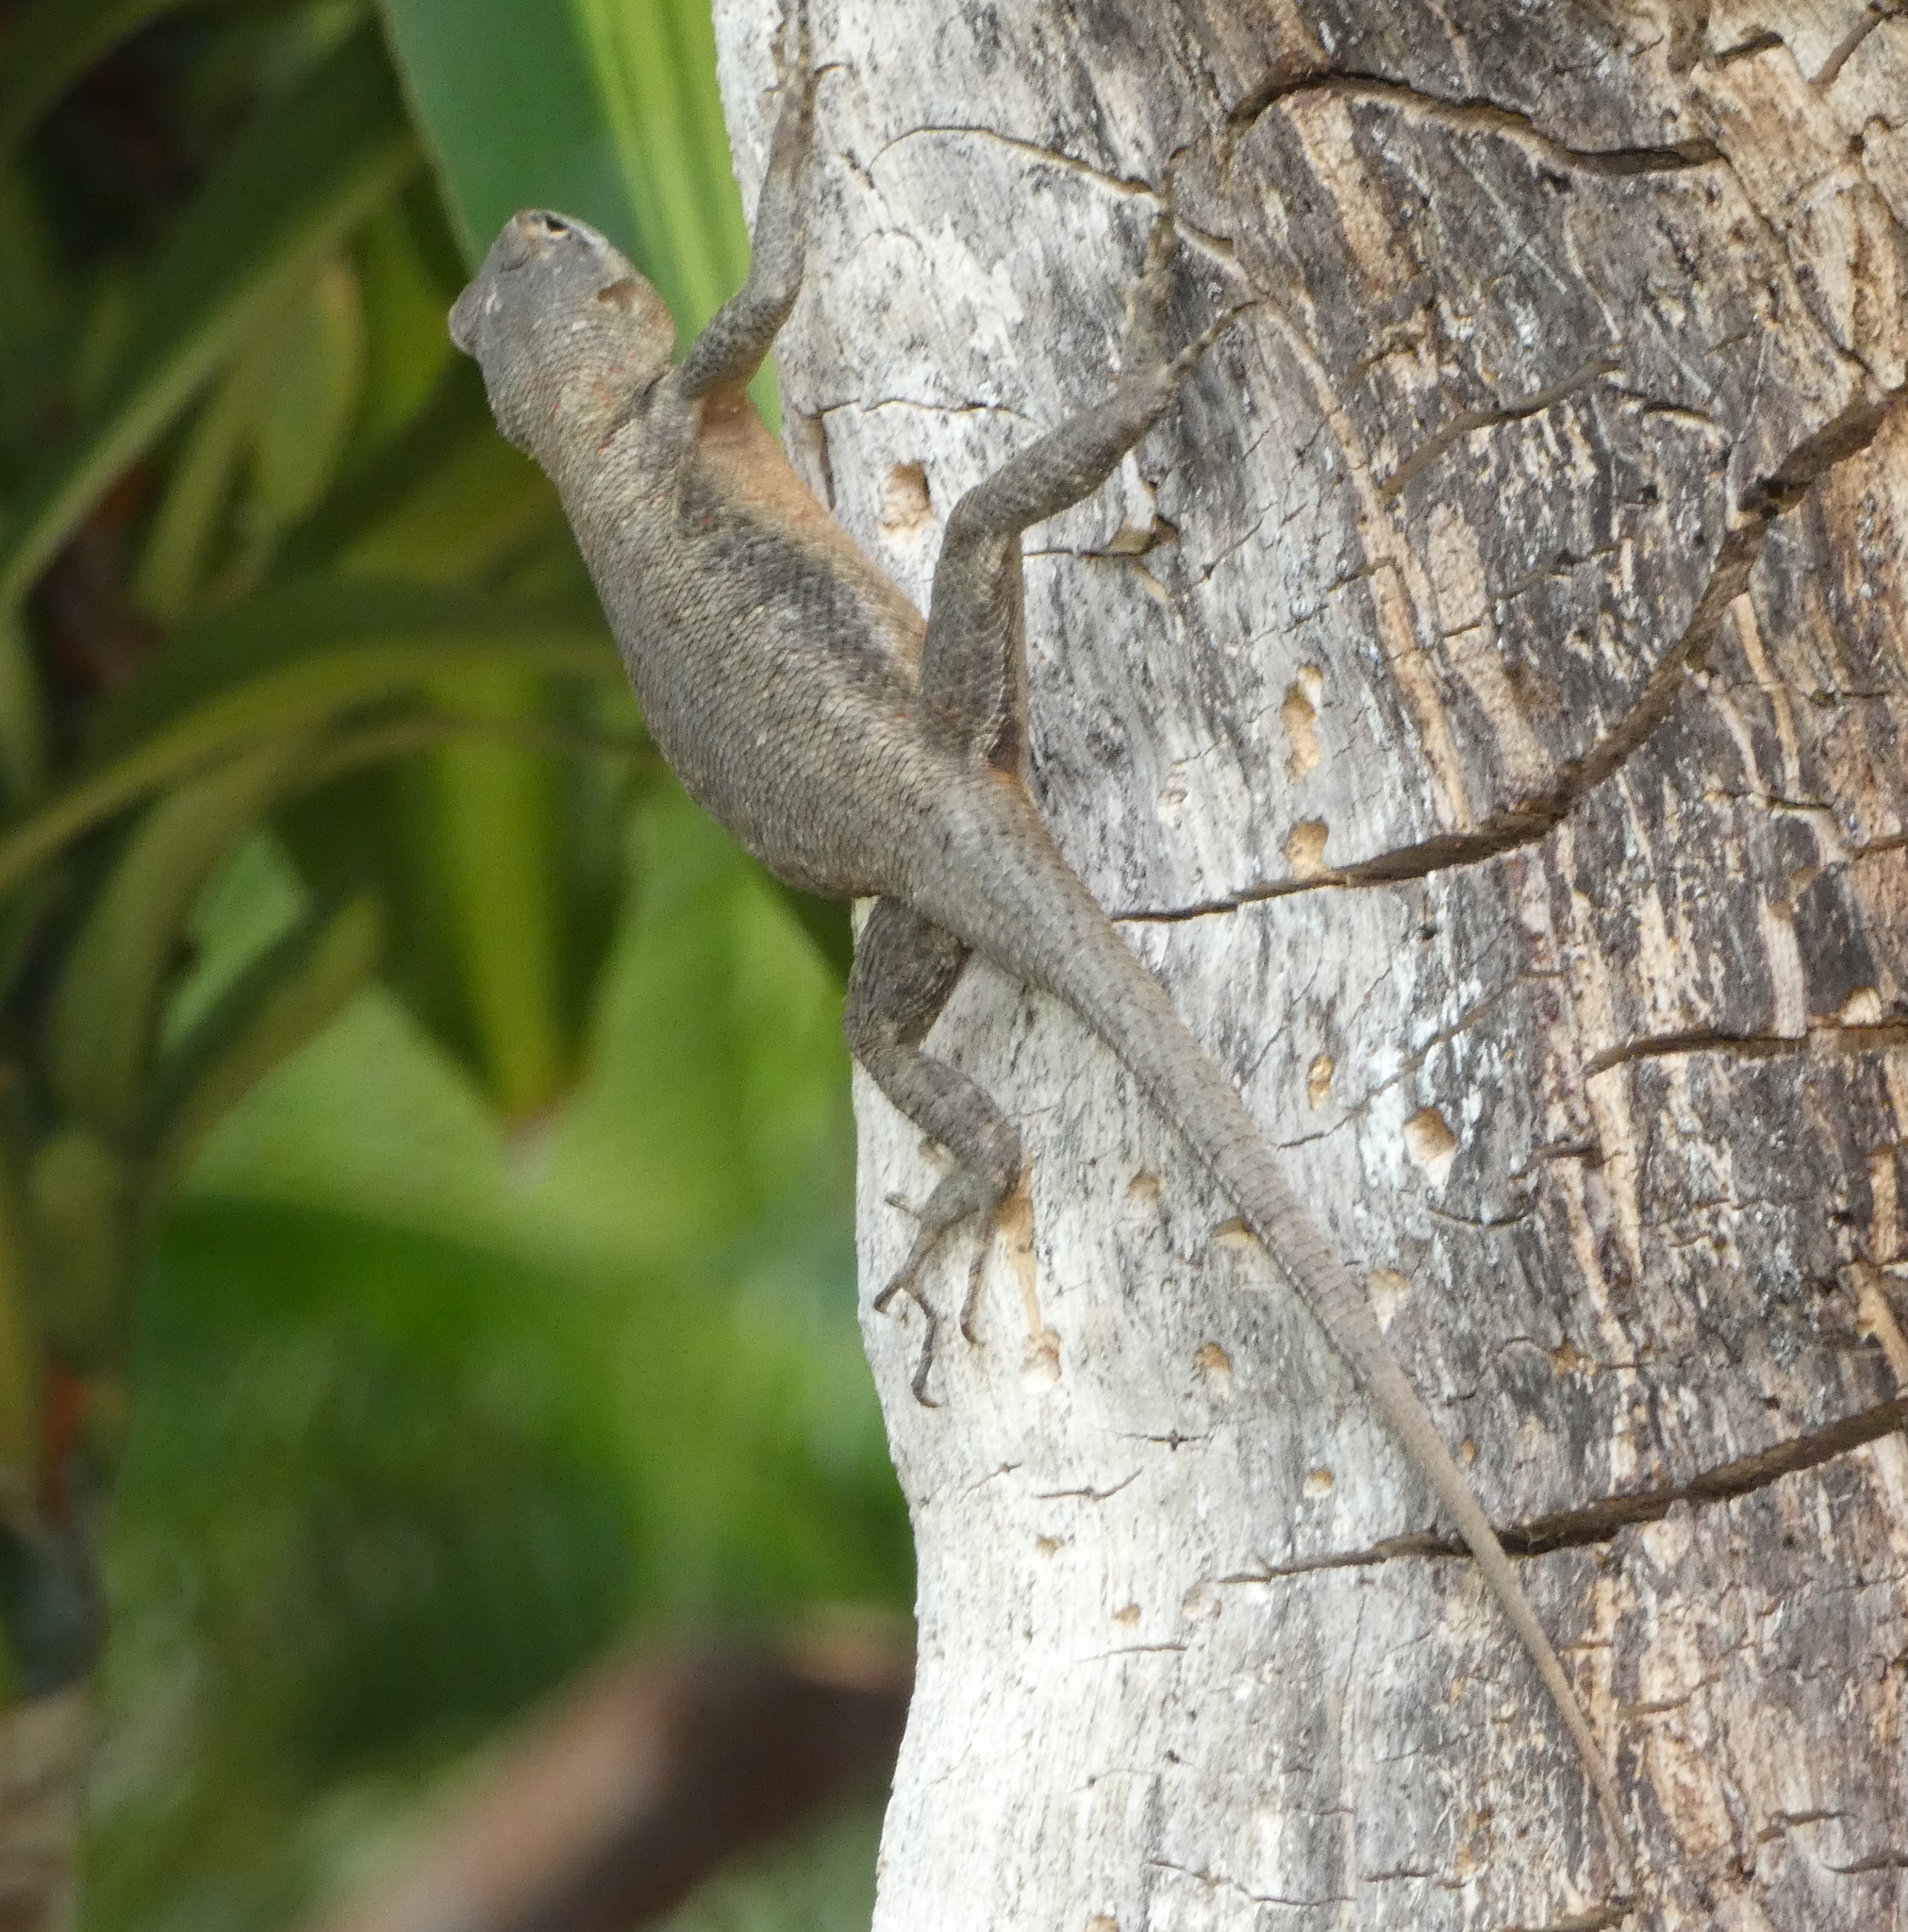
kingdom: Animalia
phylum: Chordata
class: Squamata
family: Tropiduridae
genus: Tropidurus
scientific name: Tropidurus hispidus
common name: Peters' lava lizard
